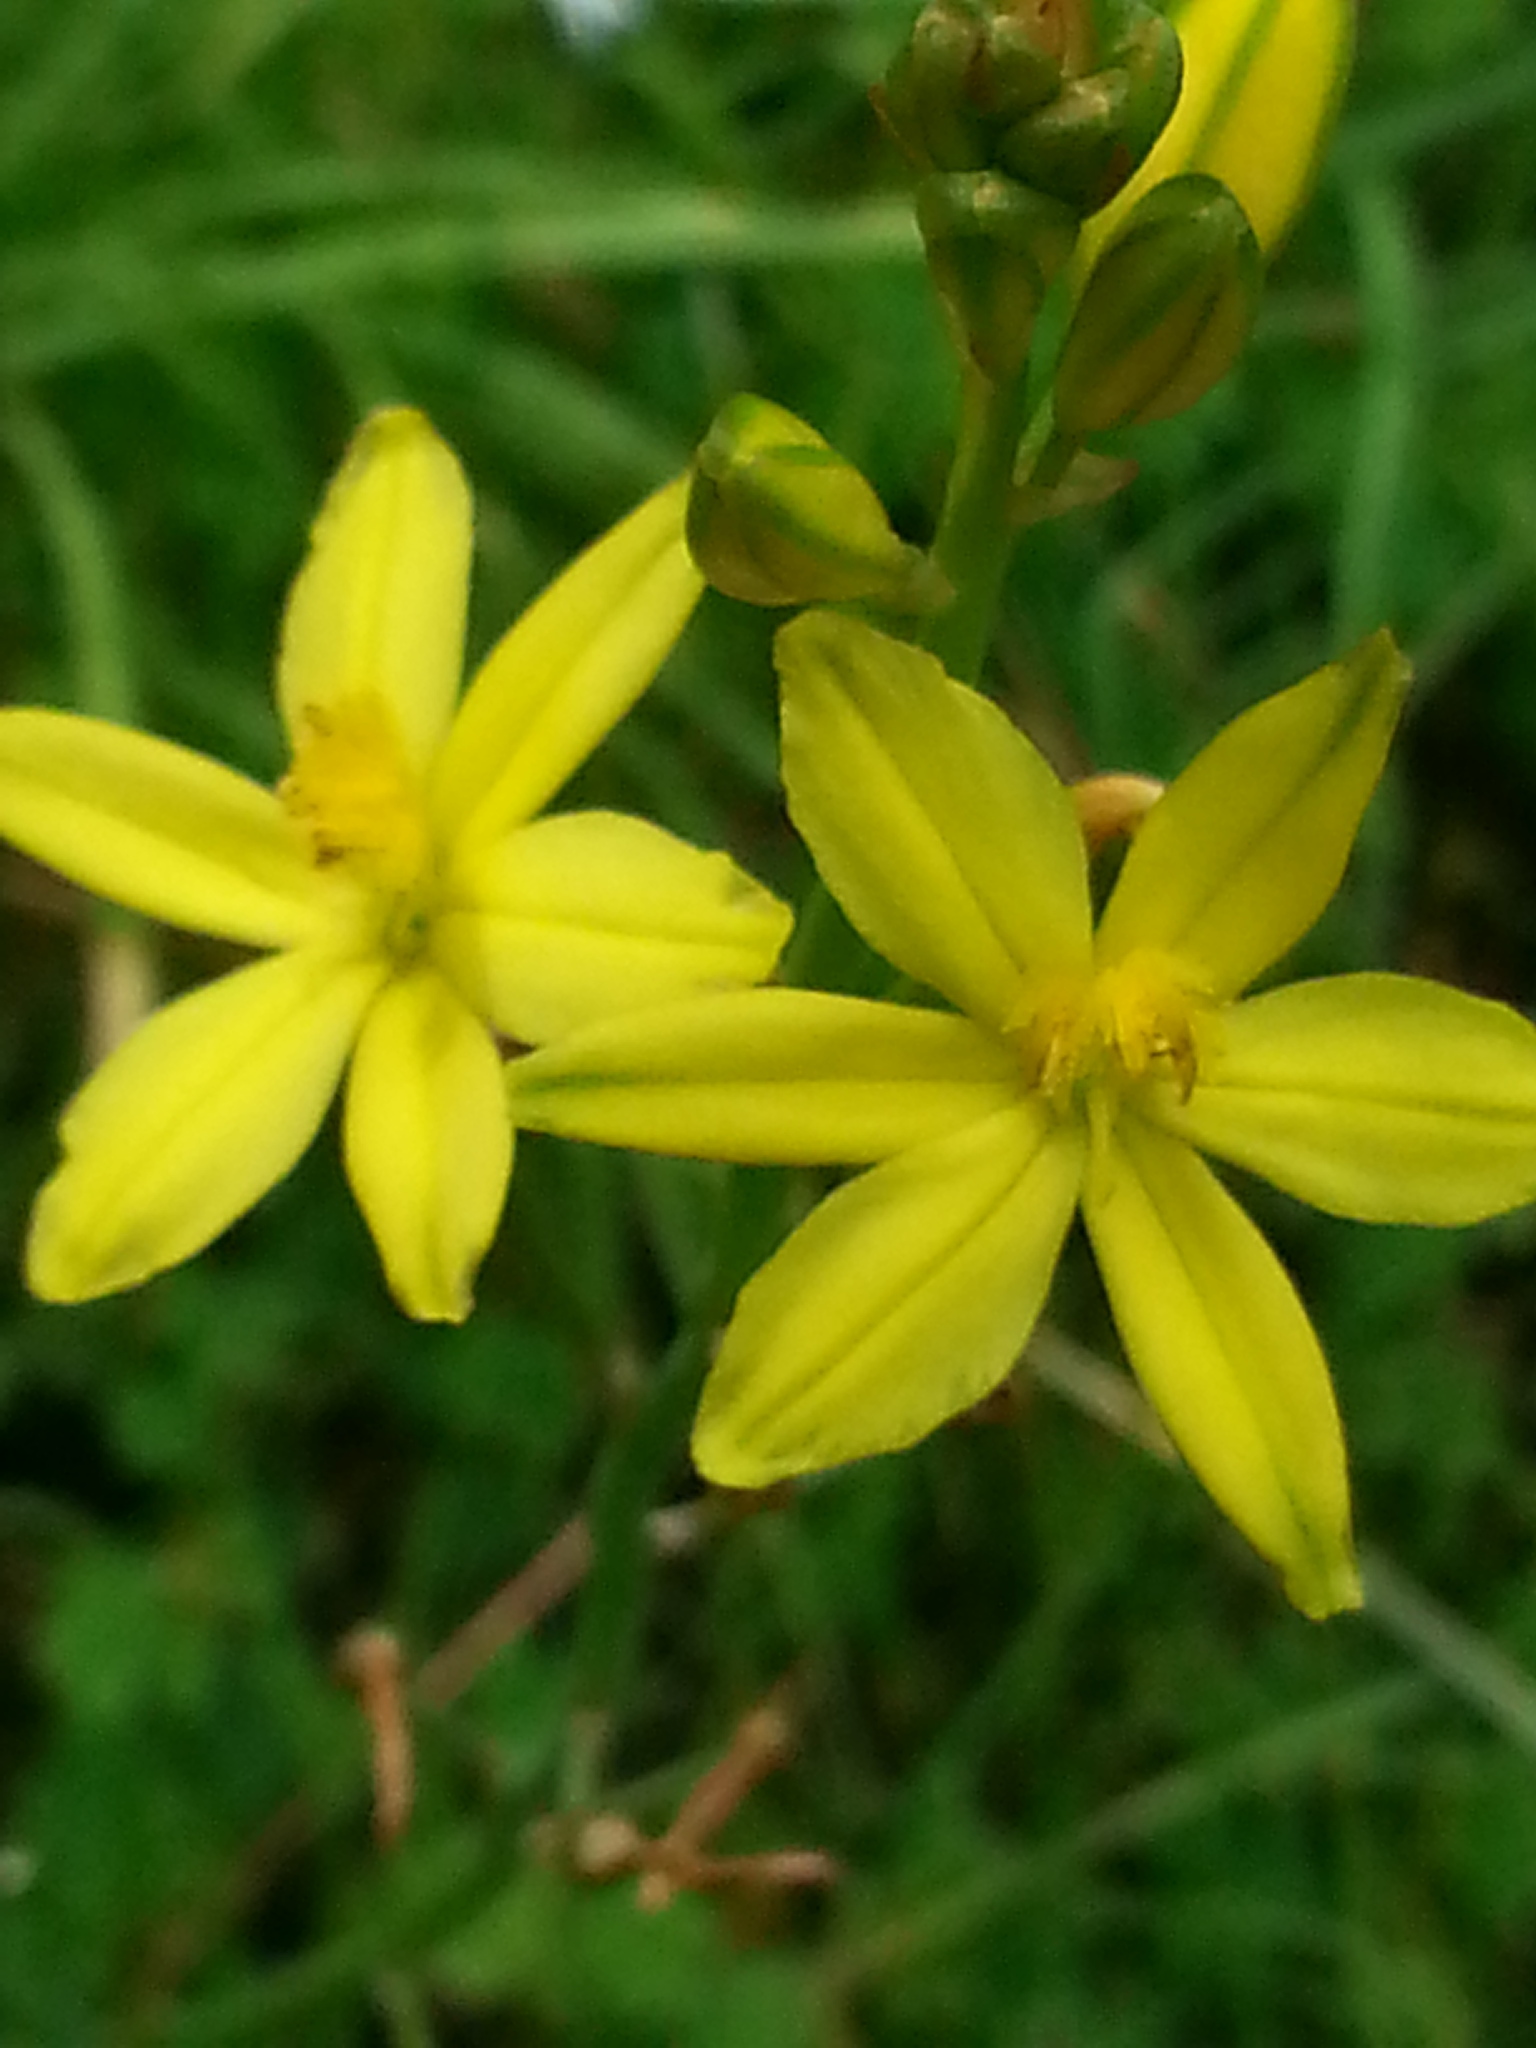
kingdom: Plantae
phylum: Tracheophyta
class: Liliopsida
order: Asparagales
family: Asphodelaceae
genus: Bulbine
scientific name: Bulbine bulbosa
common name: Golden-lily
